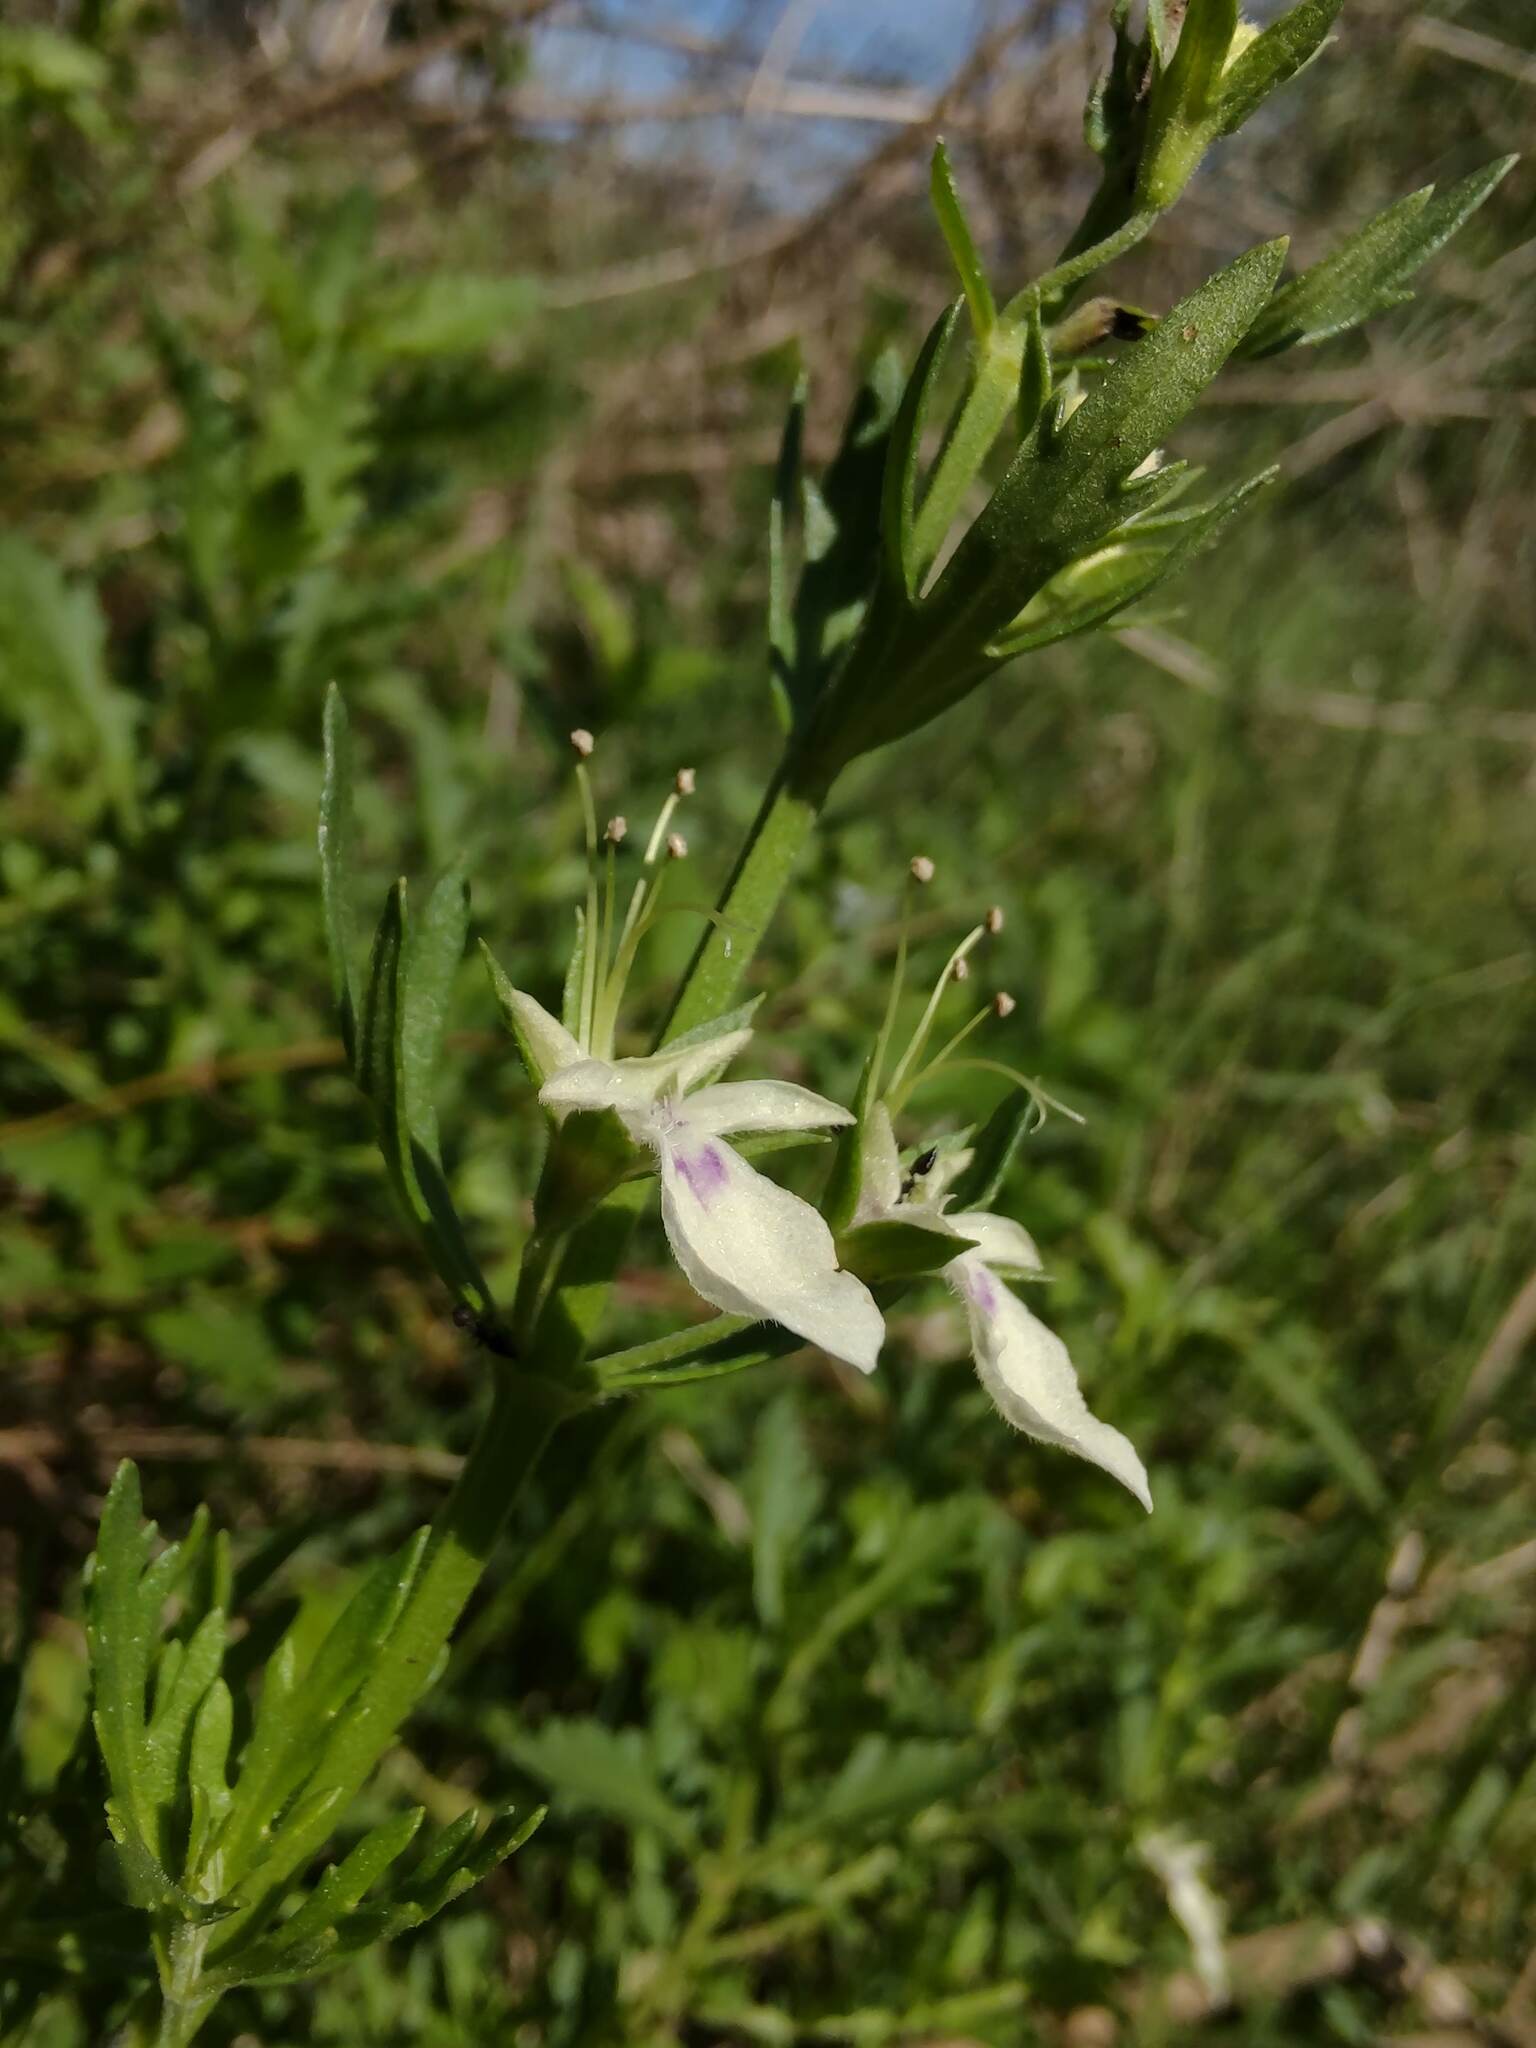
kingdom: Plantae
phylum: Tracheophyta
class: Magnoliopsida
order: Lamiales
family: Lamiaceae
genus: Teucrium
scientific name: Teucrium cubense
